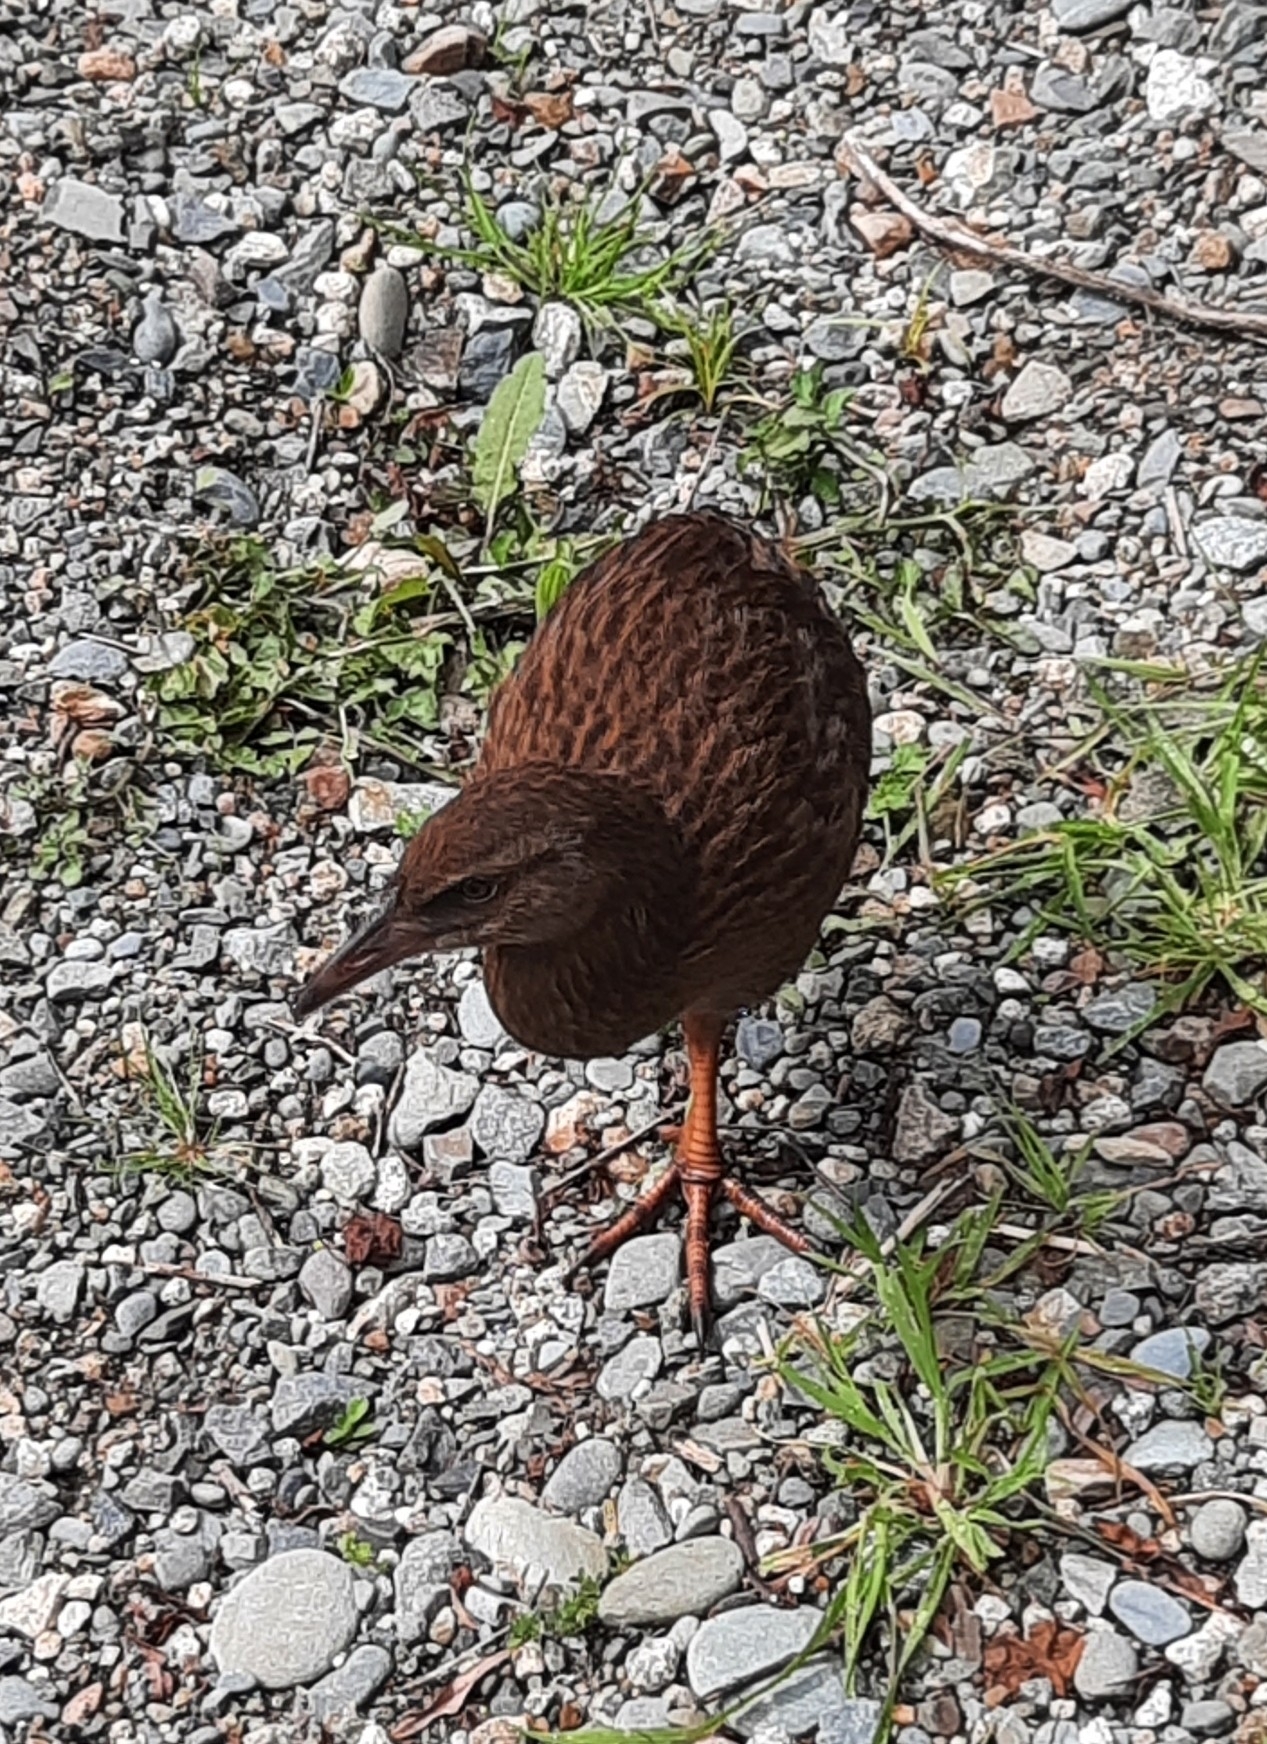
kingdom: Animalia
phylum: Chordata
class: Aves
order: Gruiformes
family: Rallidae
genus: Gallirallus
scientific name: Gallirallus australis
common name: Weka
